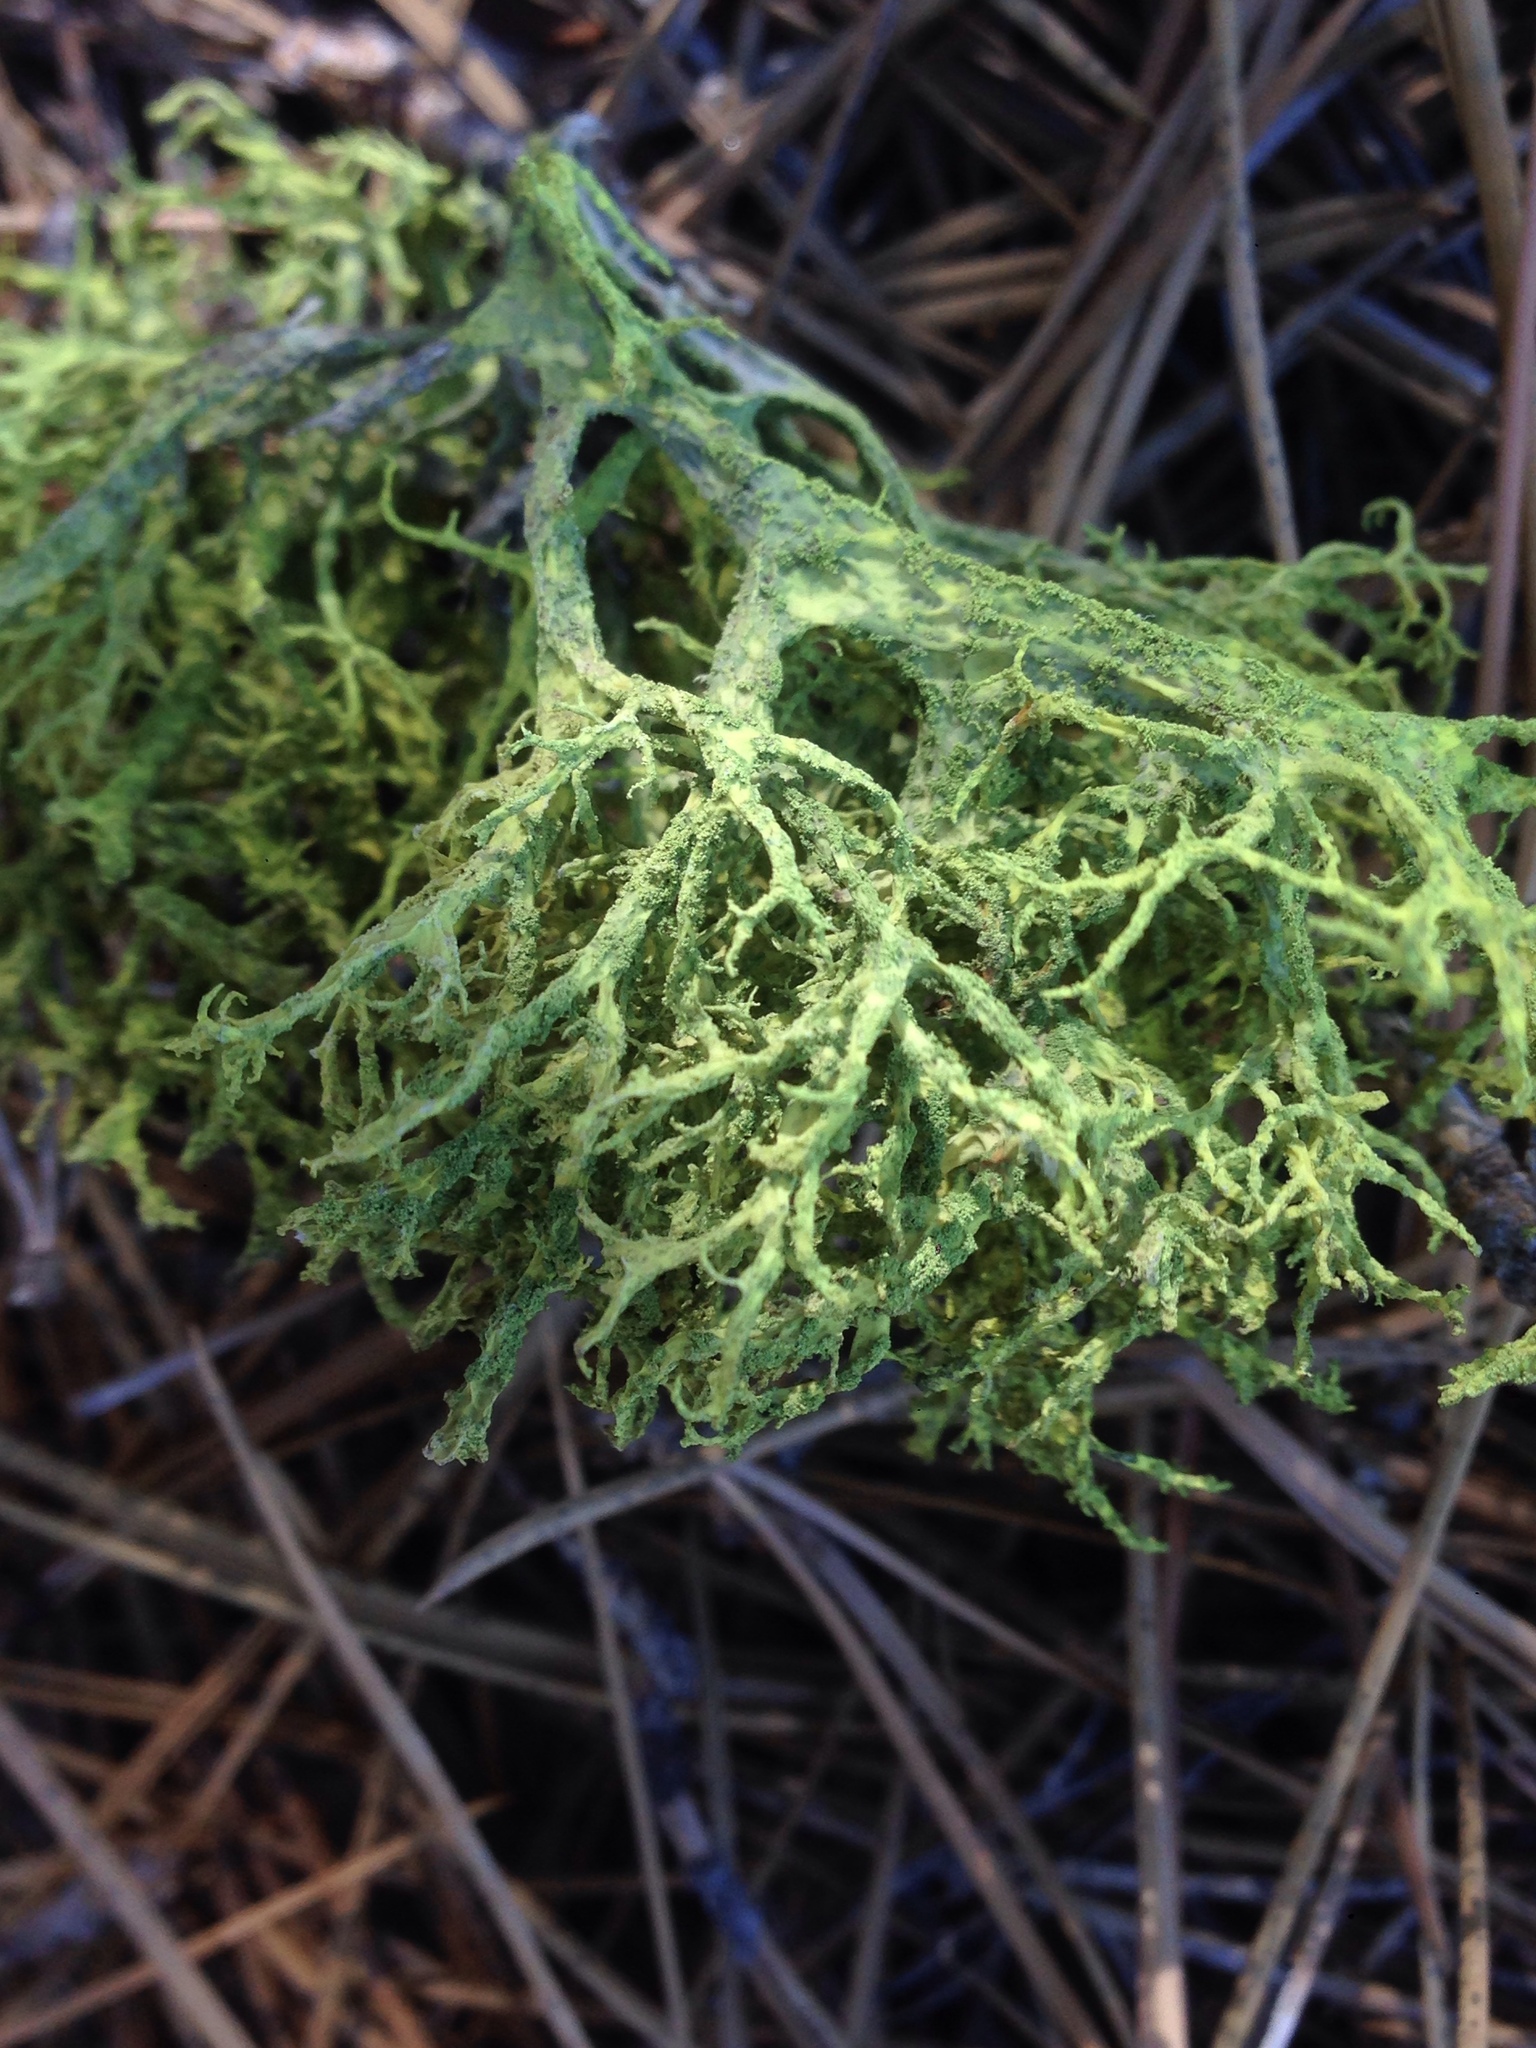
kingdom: Fungi
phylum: Ascomycota
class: Lecanoromycetes
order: Lecanorales
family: Parmeliaceae
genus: Letharia
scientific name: Letharia vulpina
